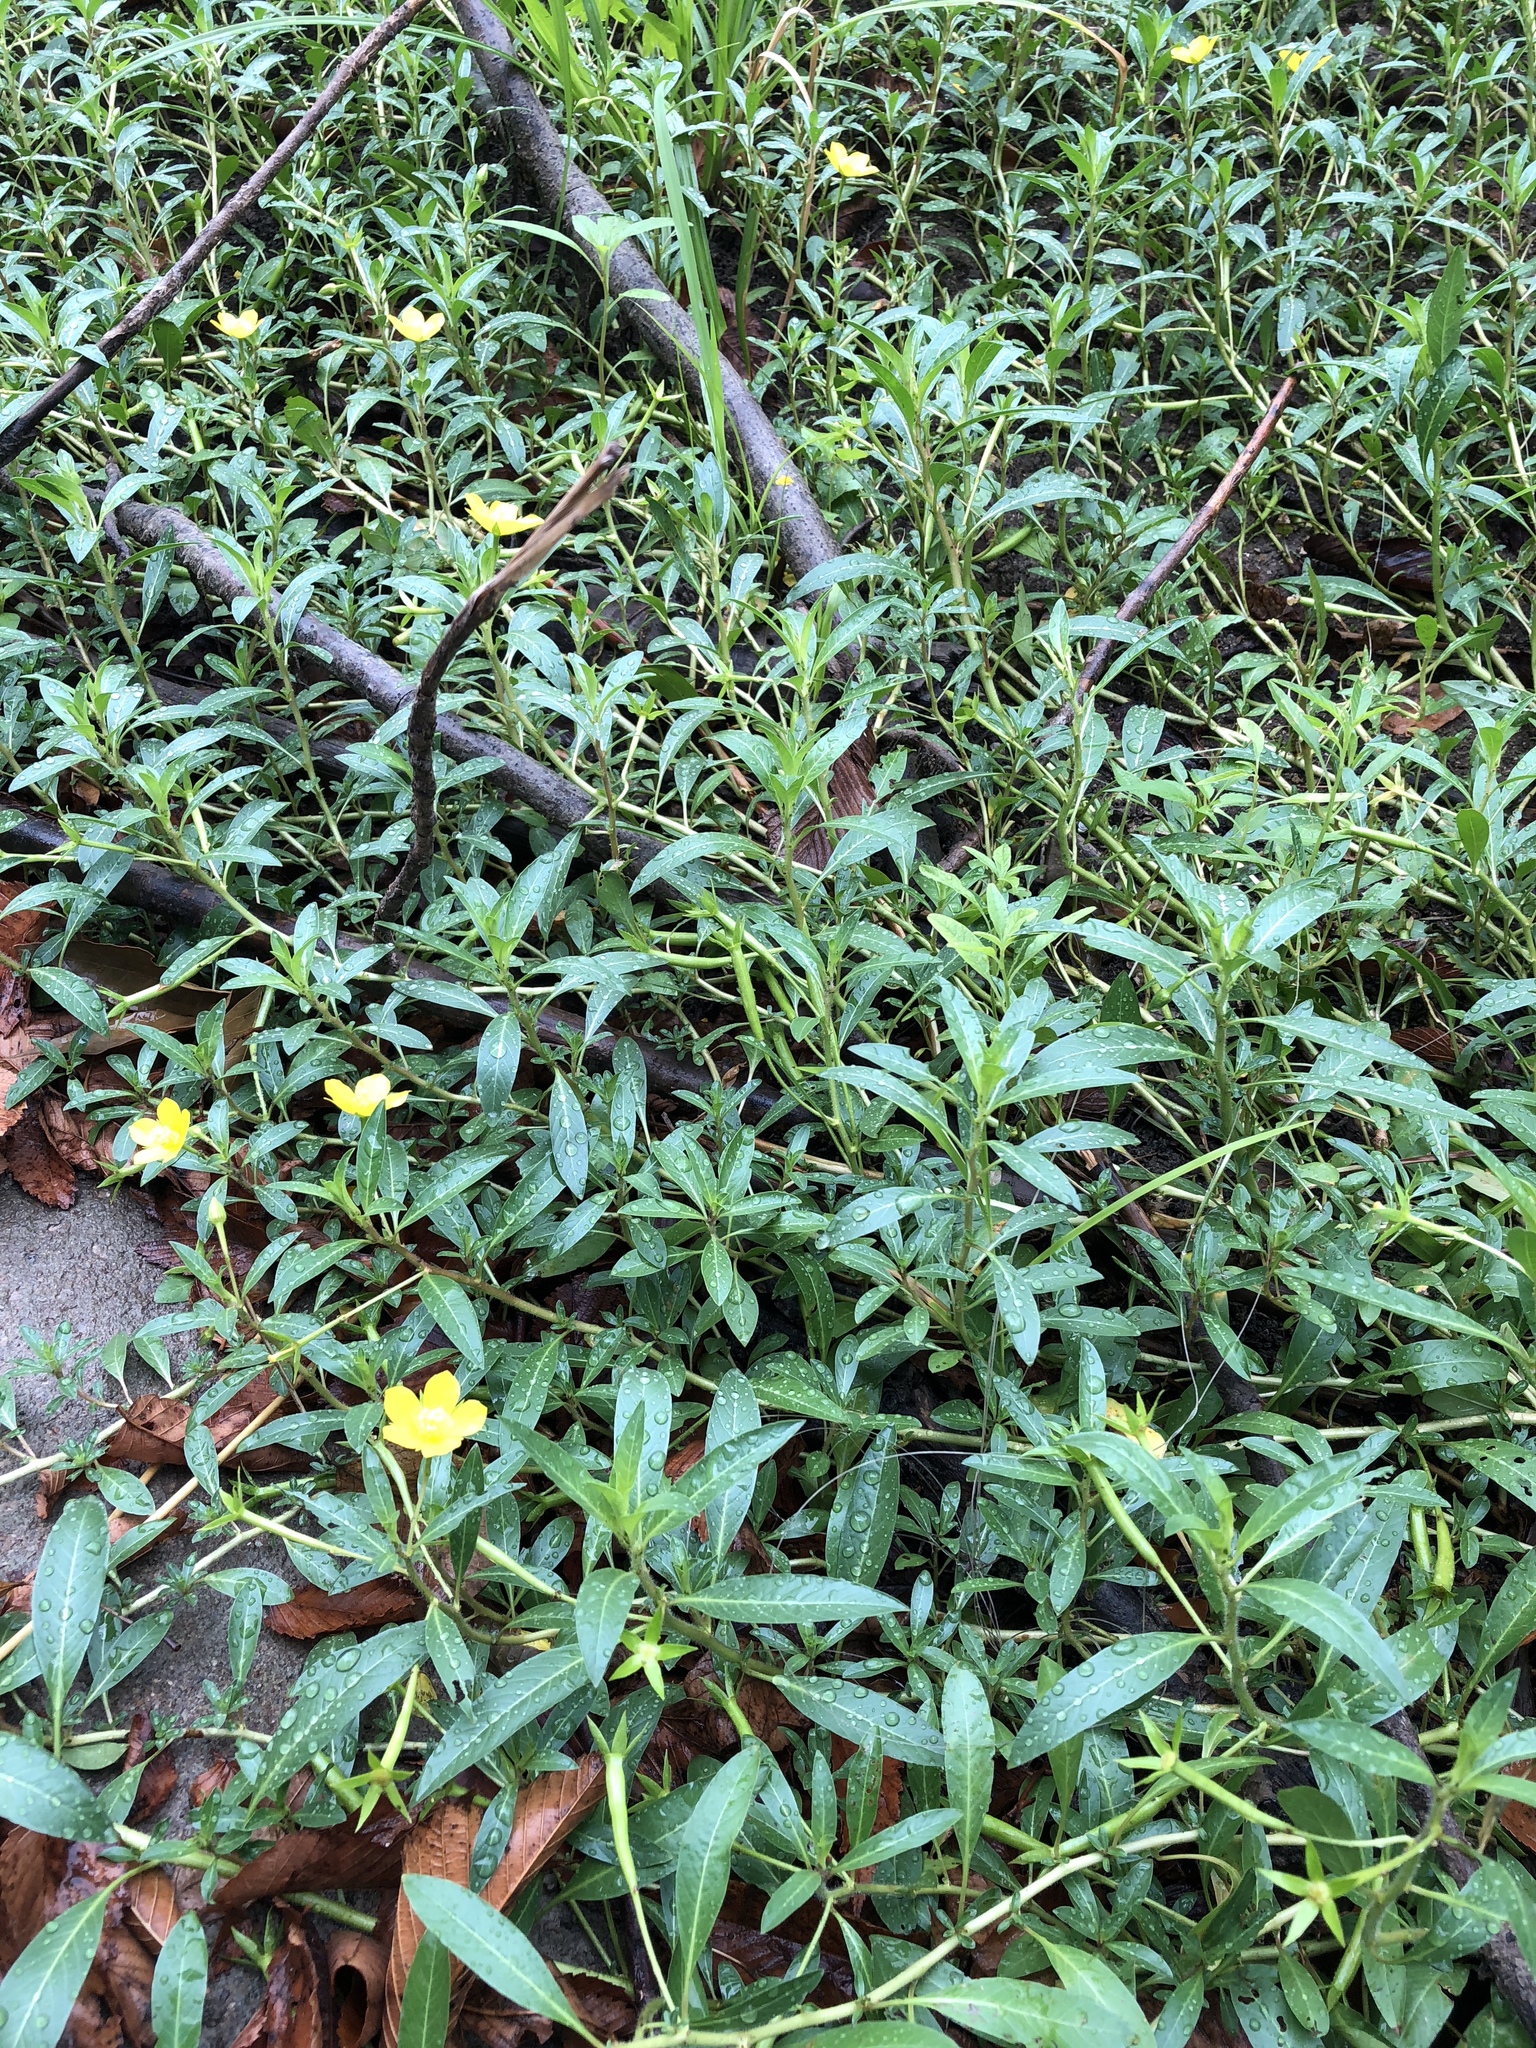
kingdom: Plantae
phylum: Tracheophyta
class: Magnoliopsida
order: Myrtales
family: Onagraceae
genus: Ludwigia
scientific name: Ludwigia peploides
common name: Floating primrose-willow
